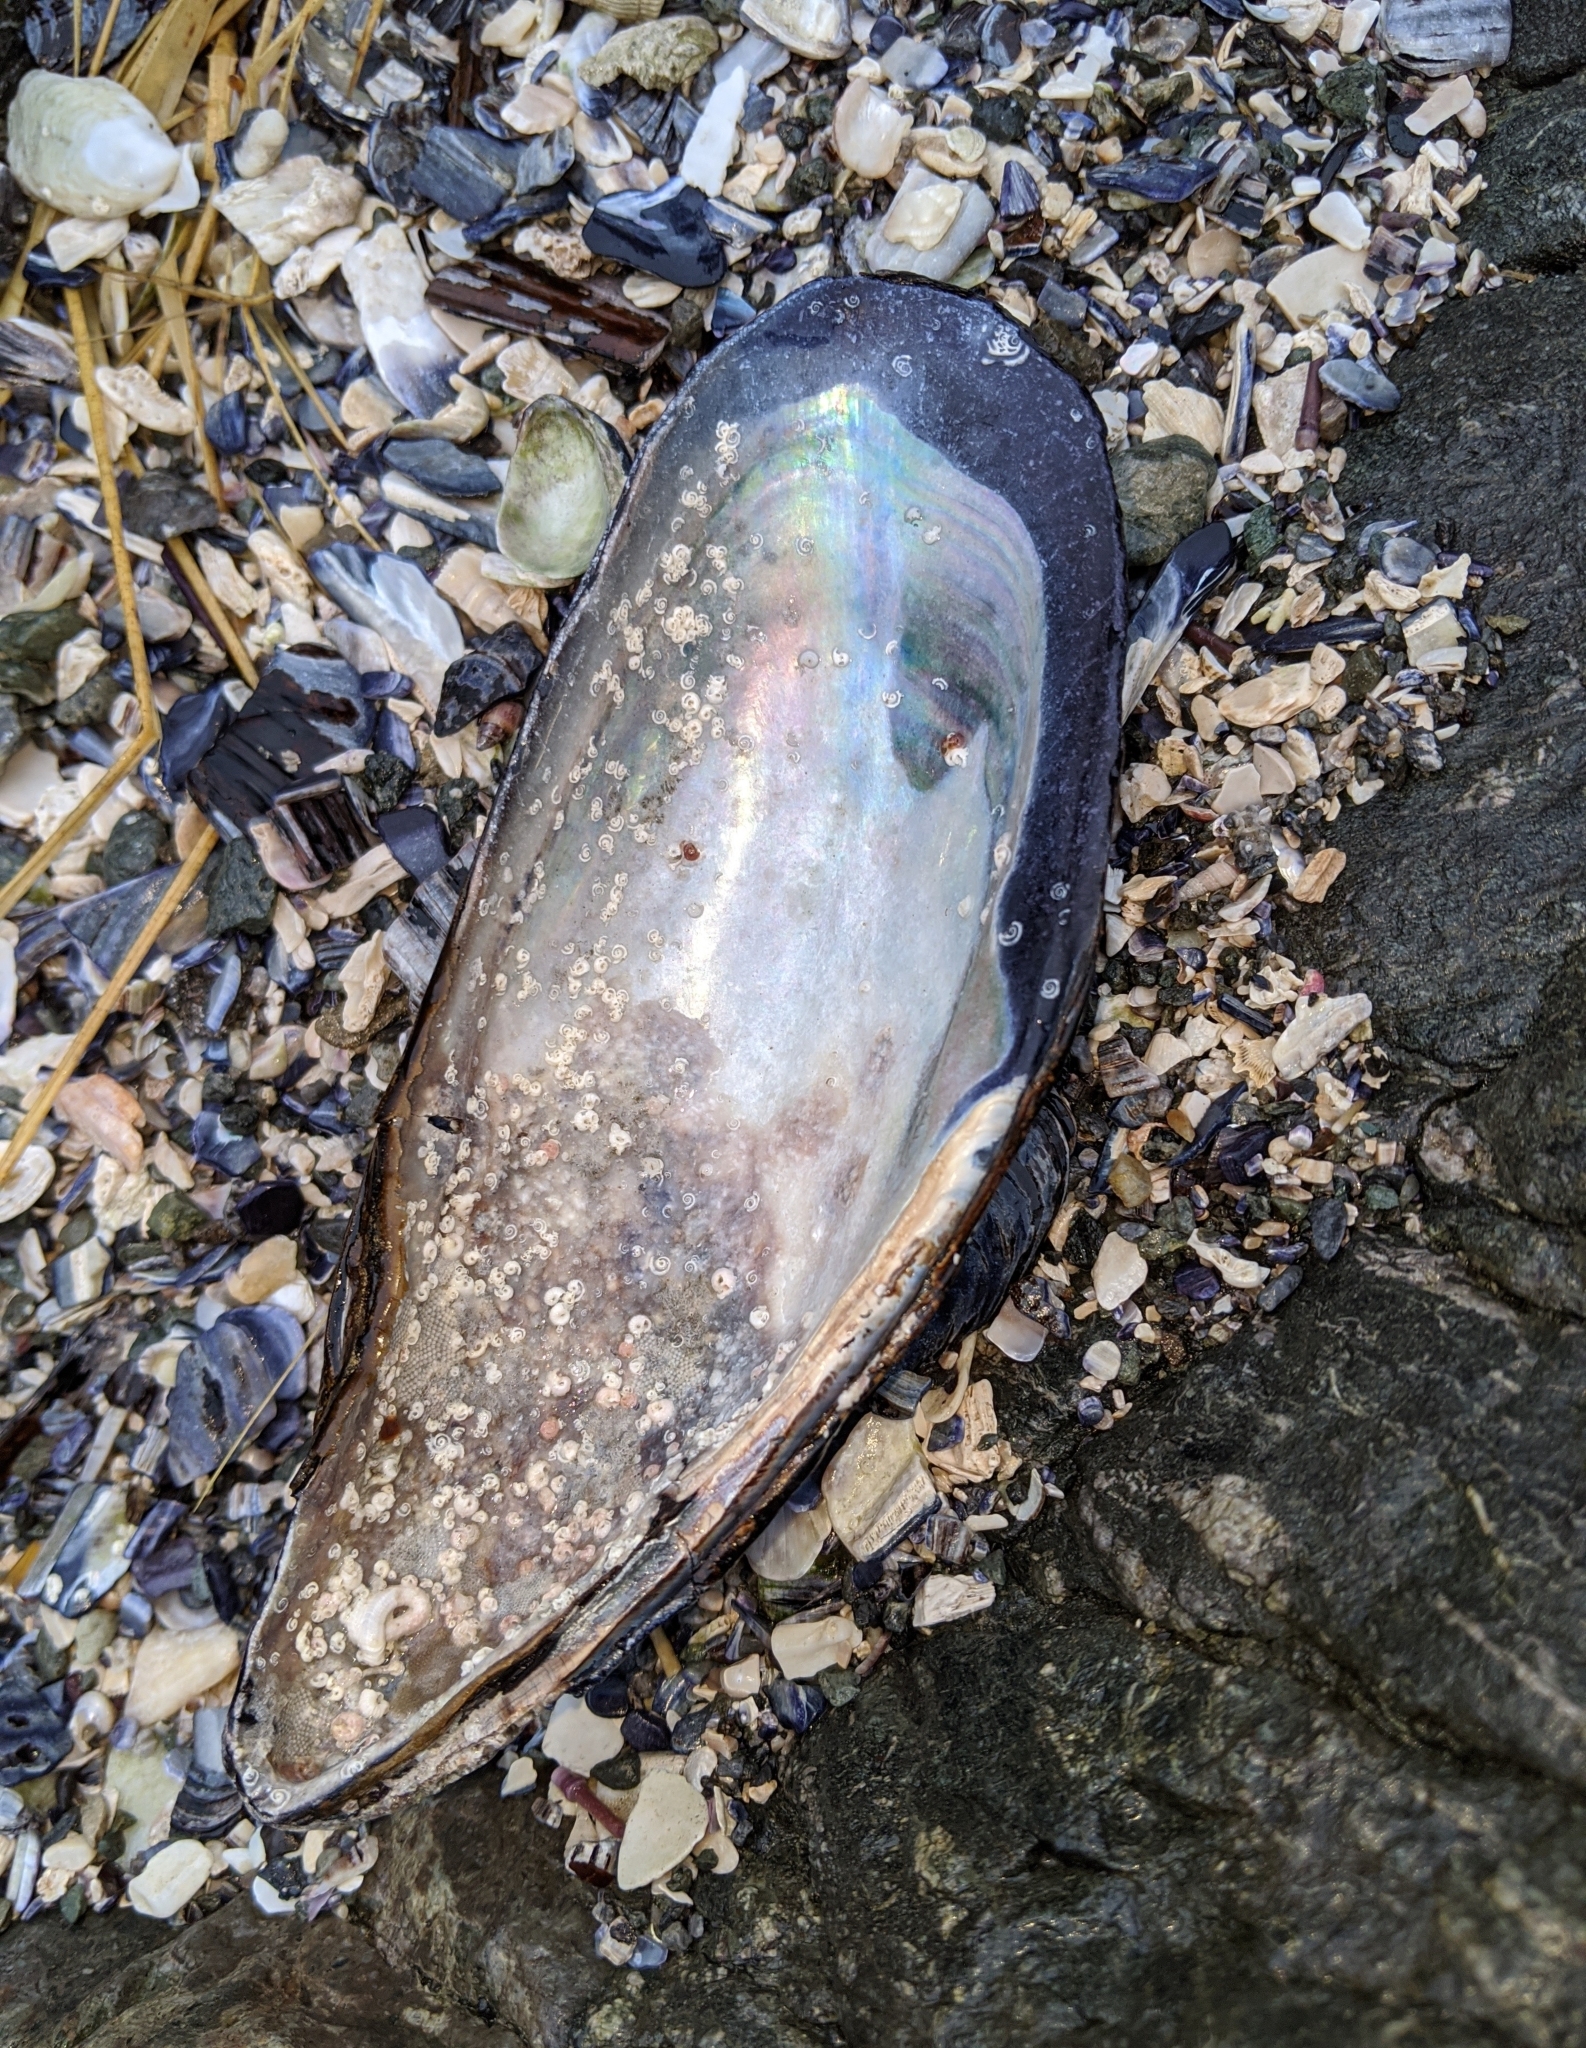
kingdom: Animalia
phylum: Mollusca
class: Bivalvia
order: Mytilida
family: Mytilidae
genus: Mytilus
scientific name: Mytilus californianus
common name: California mussel
